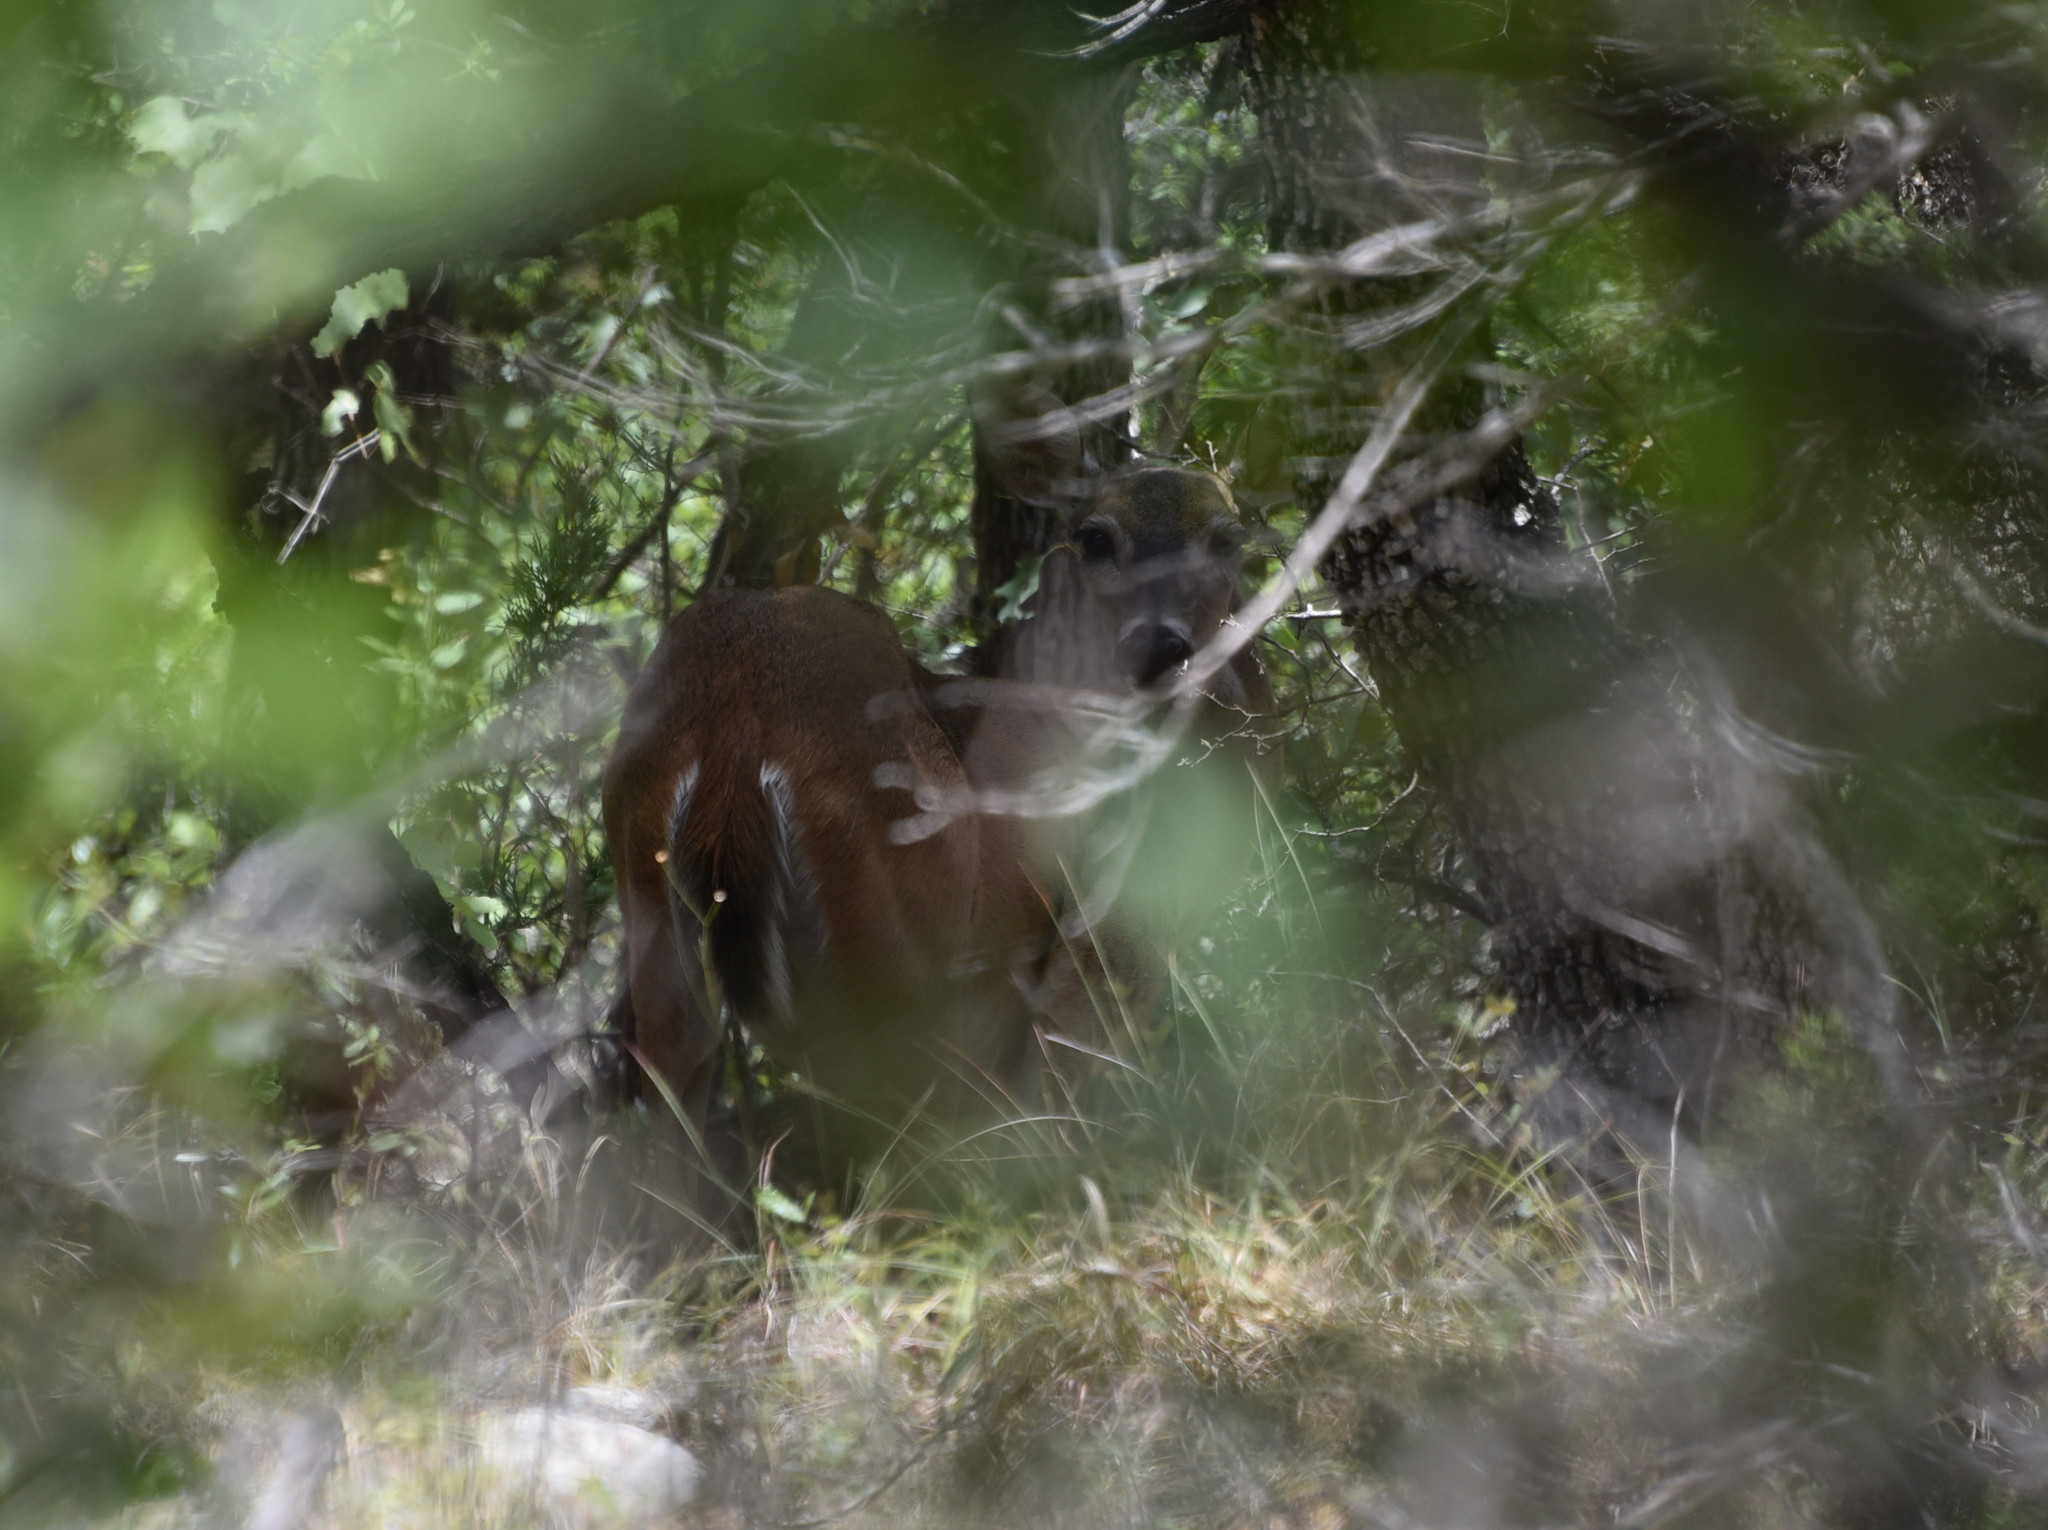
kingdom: Animalia
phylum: Chordata
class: Mammalia
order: Artiodactyla
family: Cervidae
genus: Odocoileus
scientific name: Odocoileus virginianus
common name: White-tailed deer
